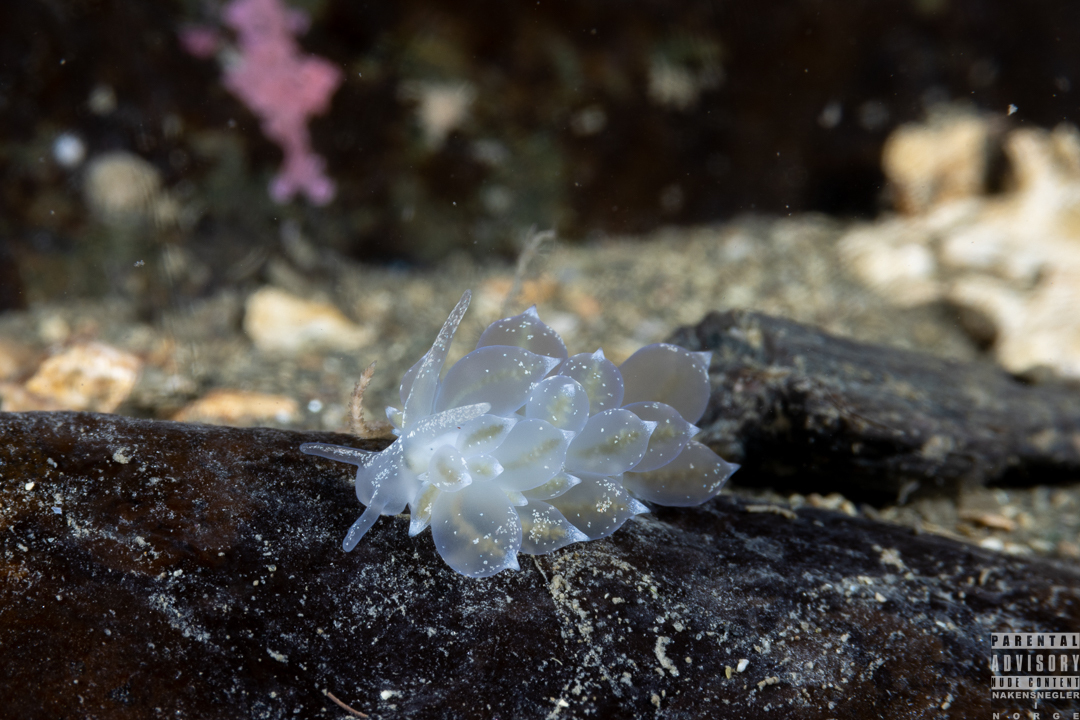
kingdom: Animalia
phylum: Mollusca
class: Gastropoda
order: Nudibranchia
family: Eubranchidae
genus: Amphorina
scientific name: Amphorina pallida
